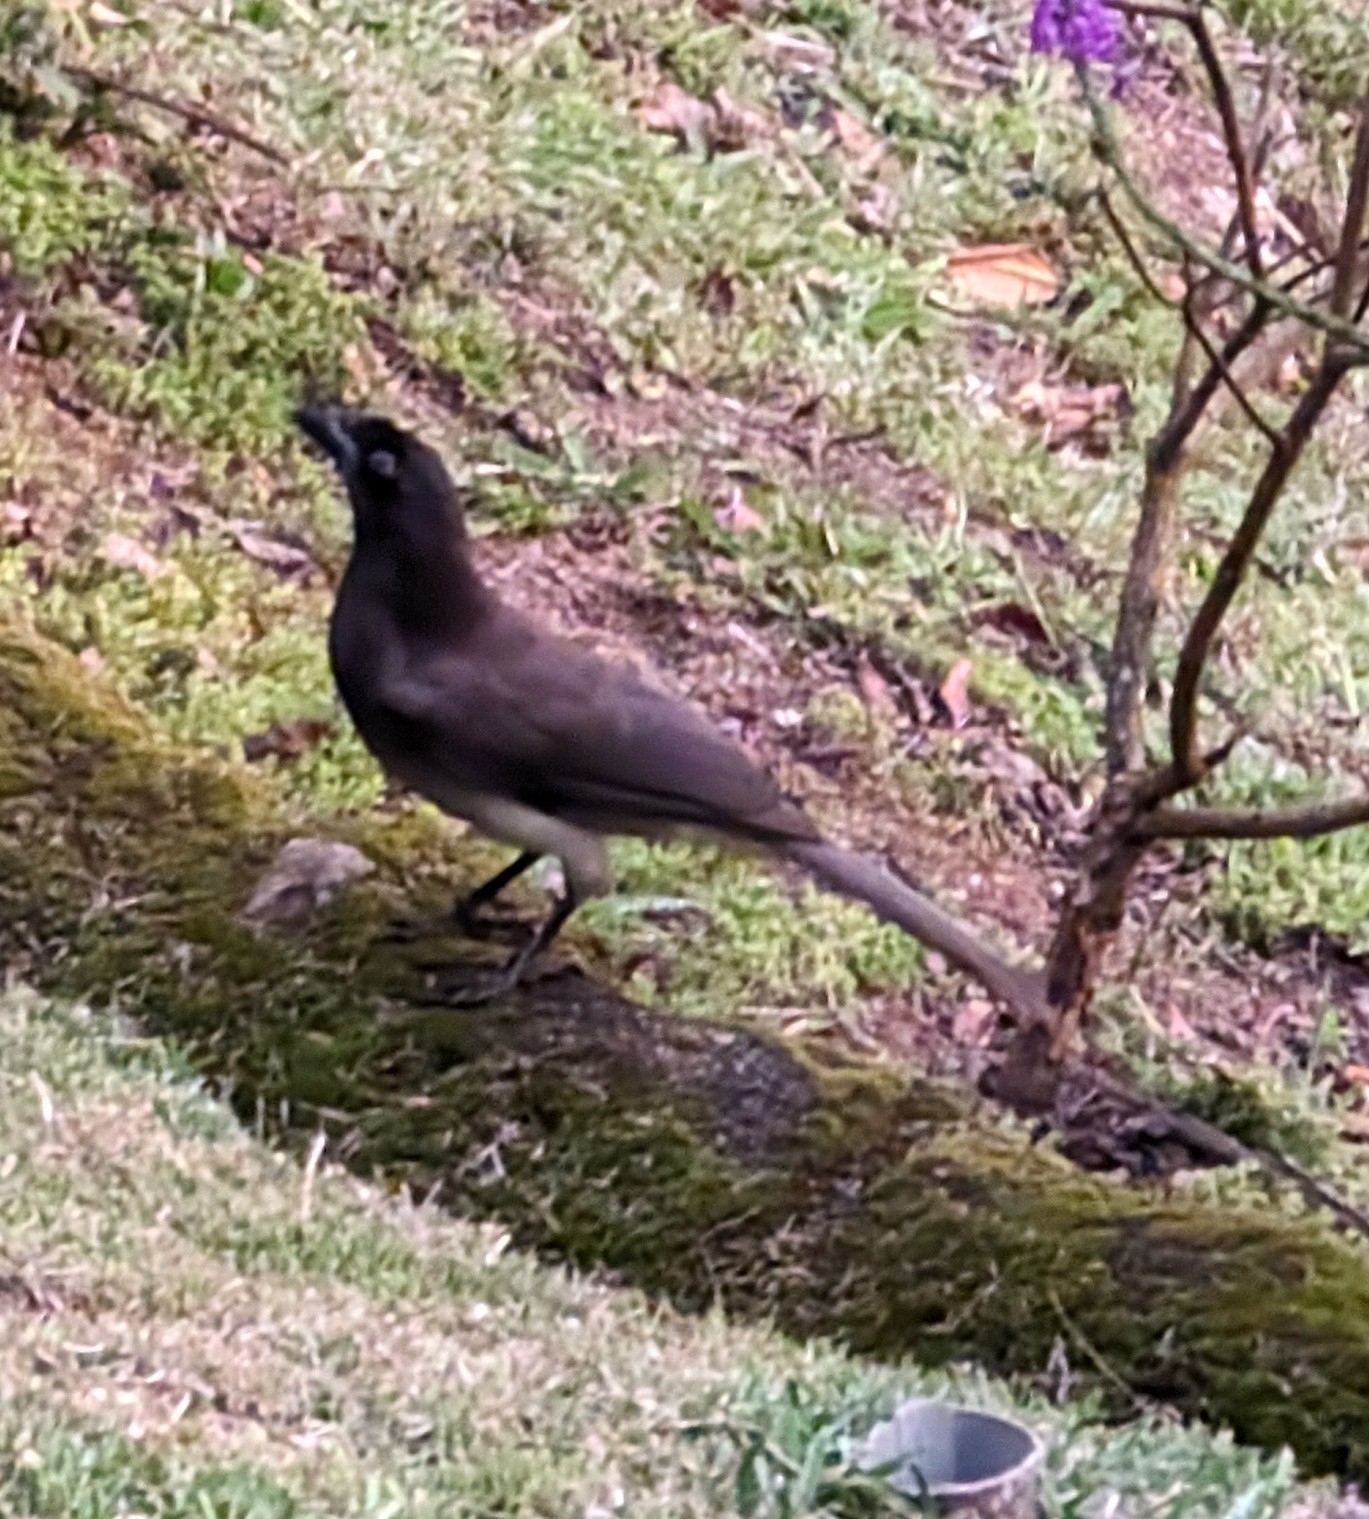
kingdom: Animalia
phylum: Chordata
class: Aves
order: Passeriformes
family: Corvidae
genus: Psilorhinus
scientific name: Psilorhinus morio
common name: Brown jay
